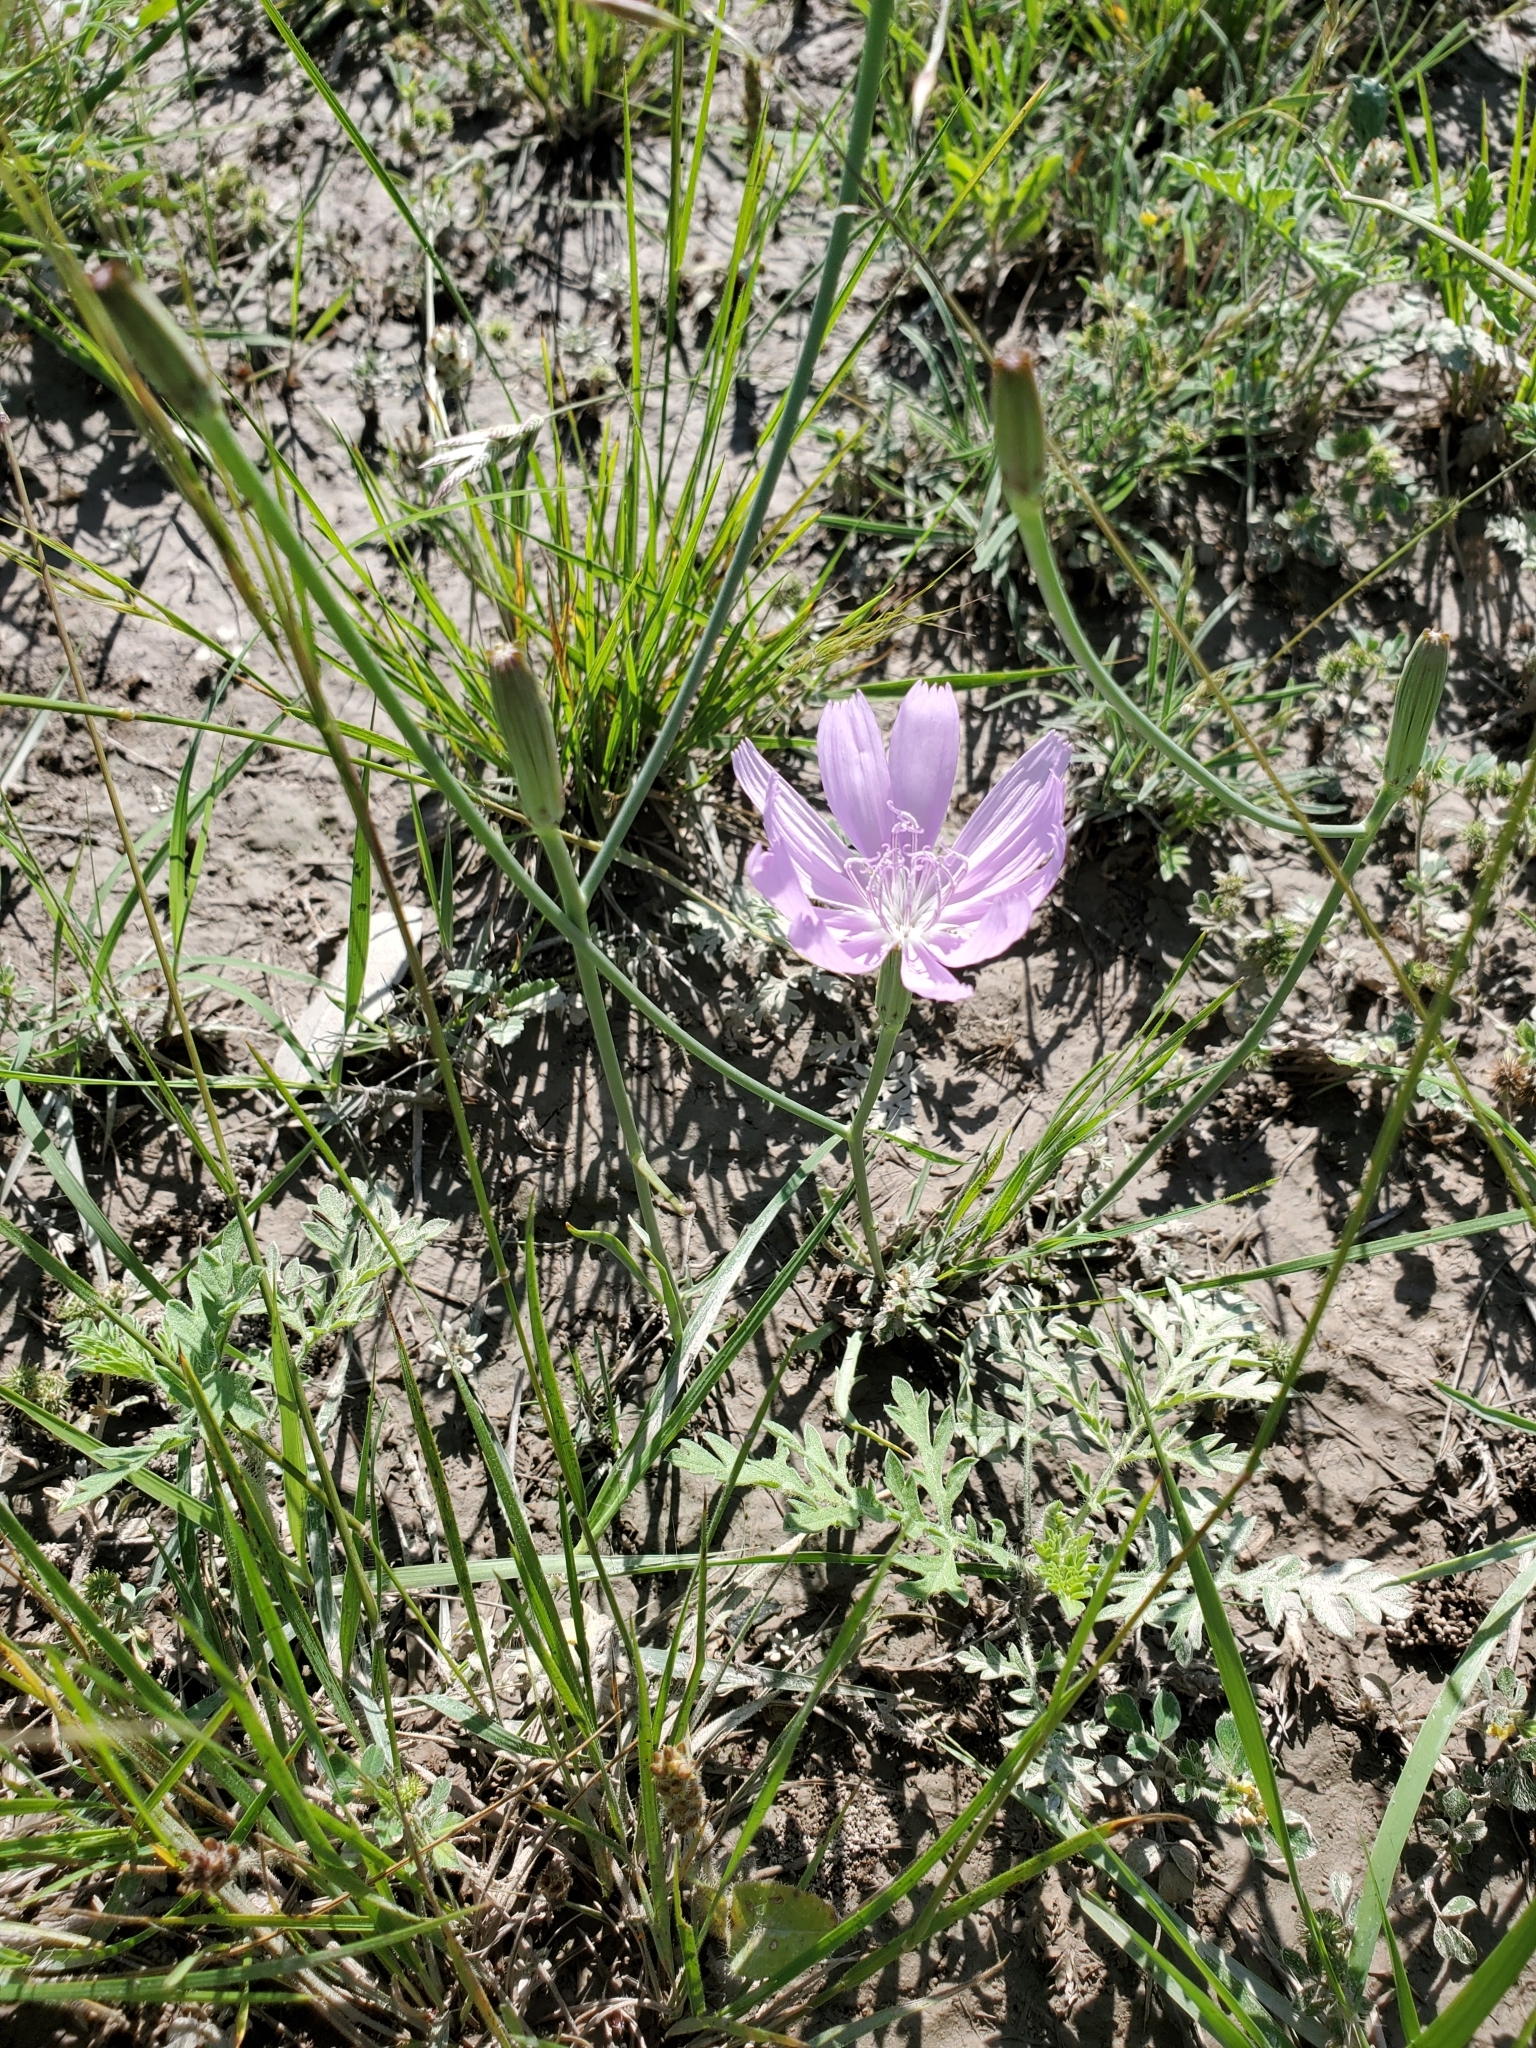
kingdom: Plantae
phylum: Tracheophyta
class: Magnoliopsida
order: Asterales
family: Asteraceae
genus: Lygodesmia
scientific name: Lygodesmia texana
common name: Texas skeleton-plant
